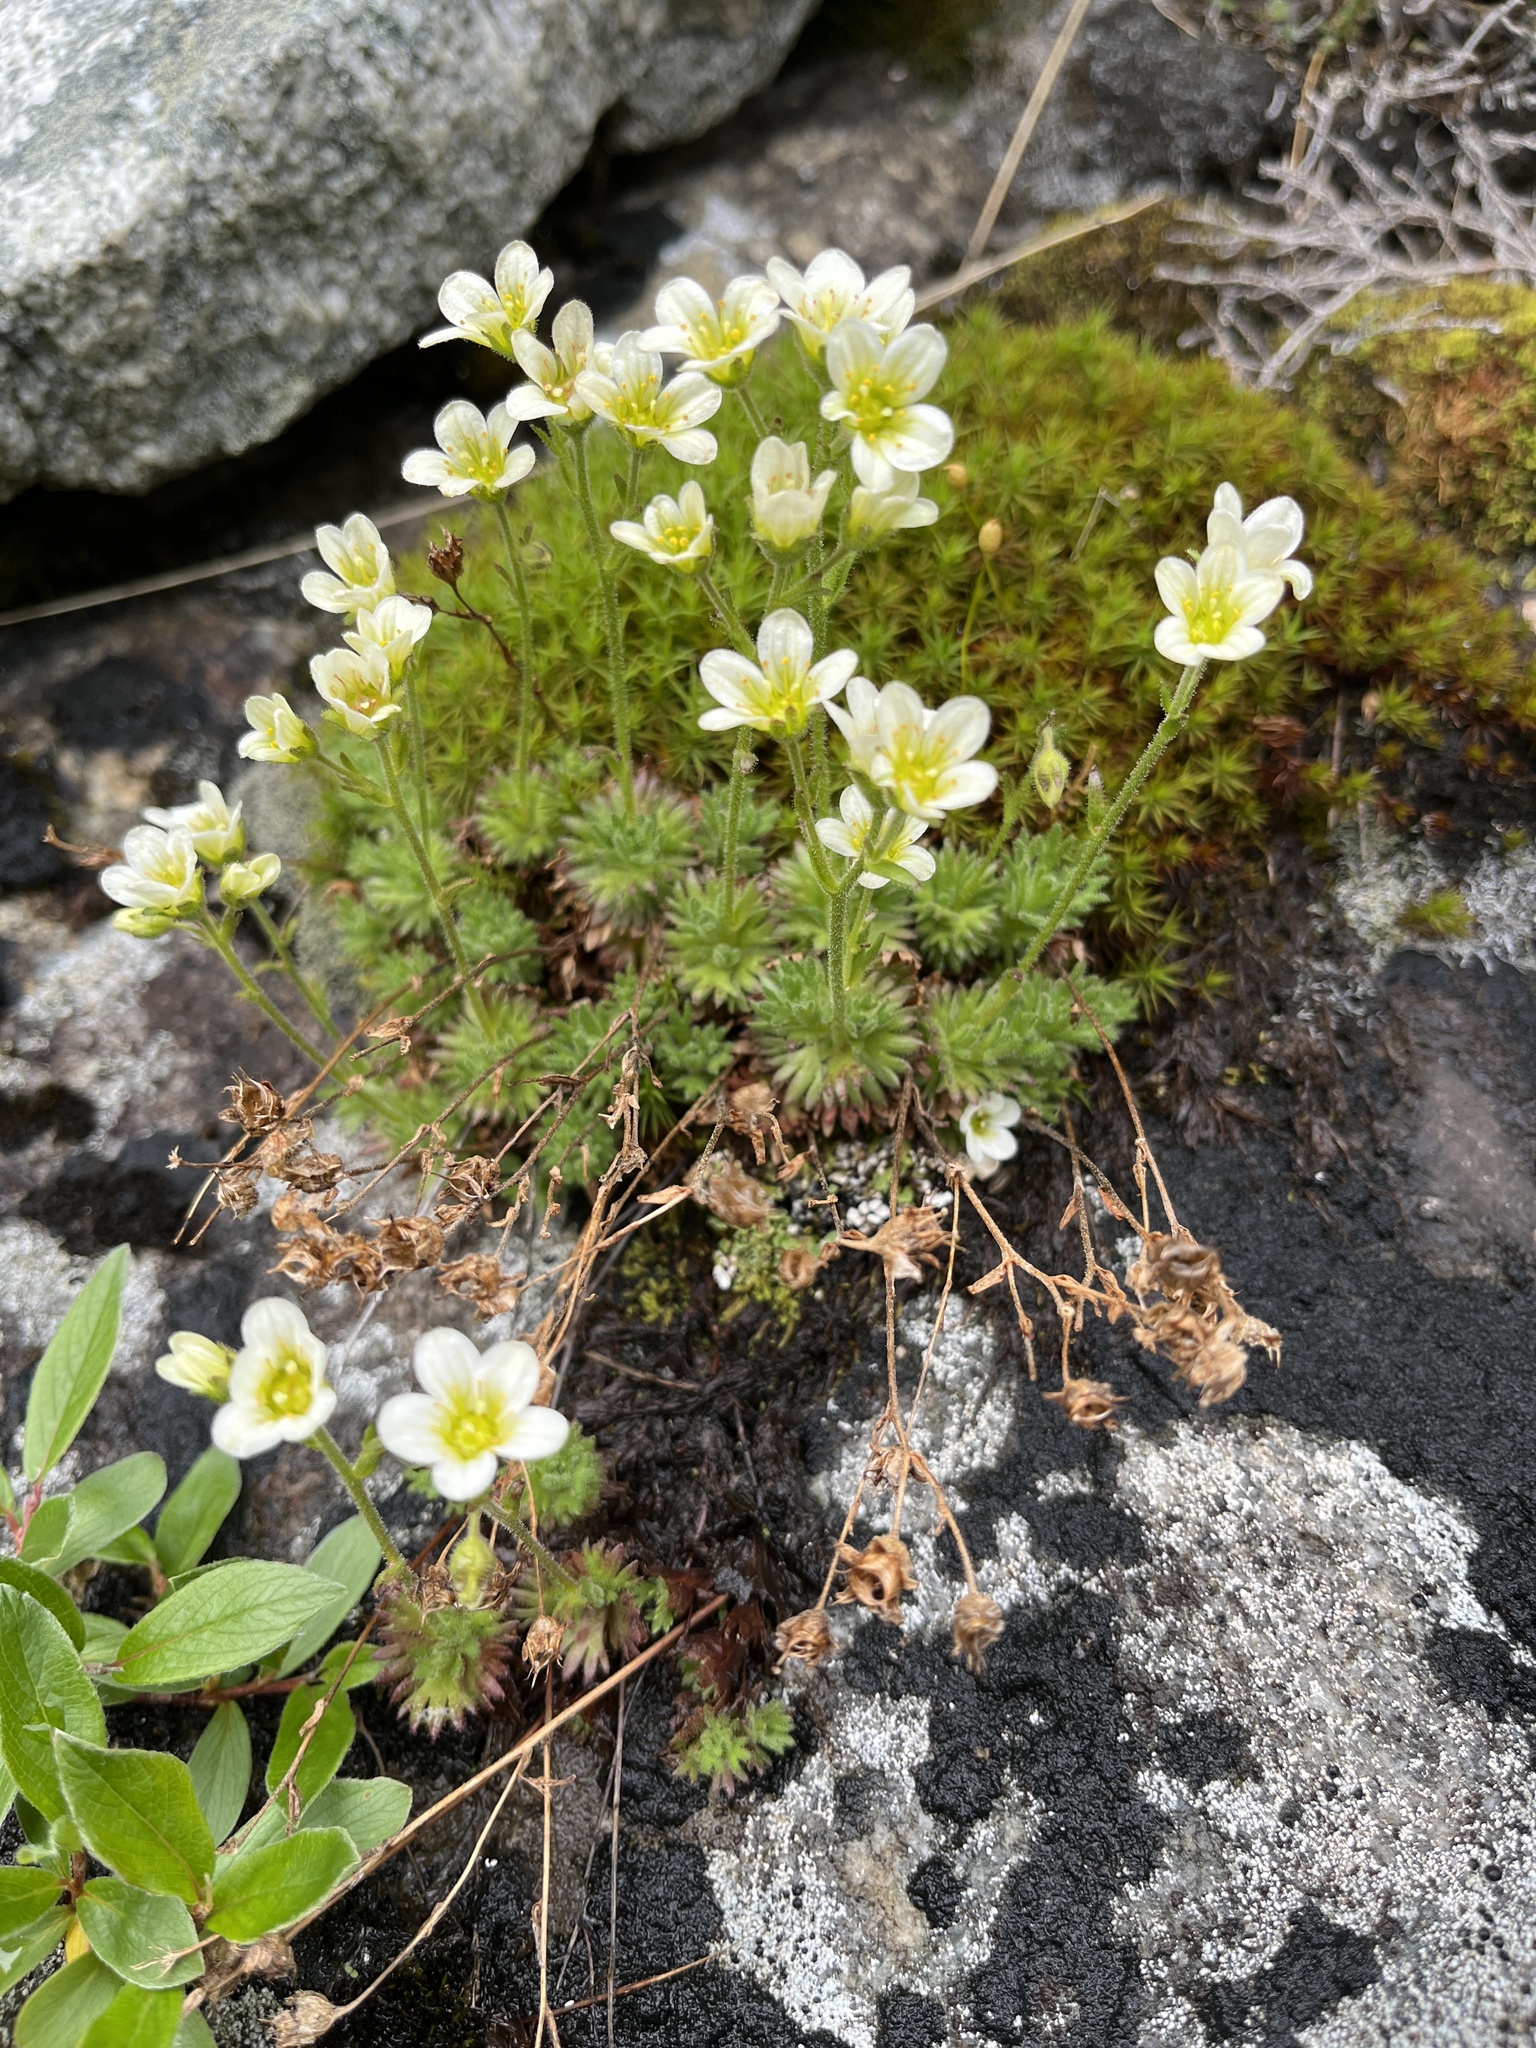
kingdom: Plantae
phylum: Tracheophyta
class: Magnoliopsida
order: Saxifragales
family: Saxifragaceae
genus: Saxifraga
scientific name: Saxifraga cespitosa
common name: Tufted saxifrage
